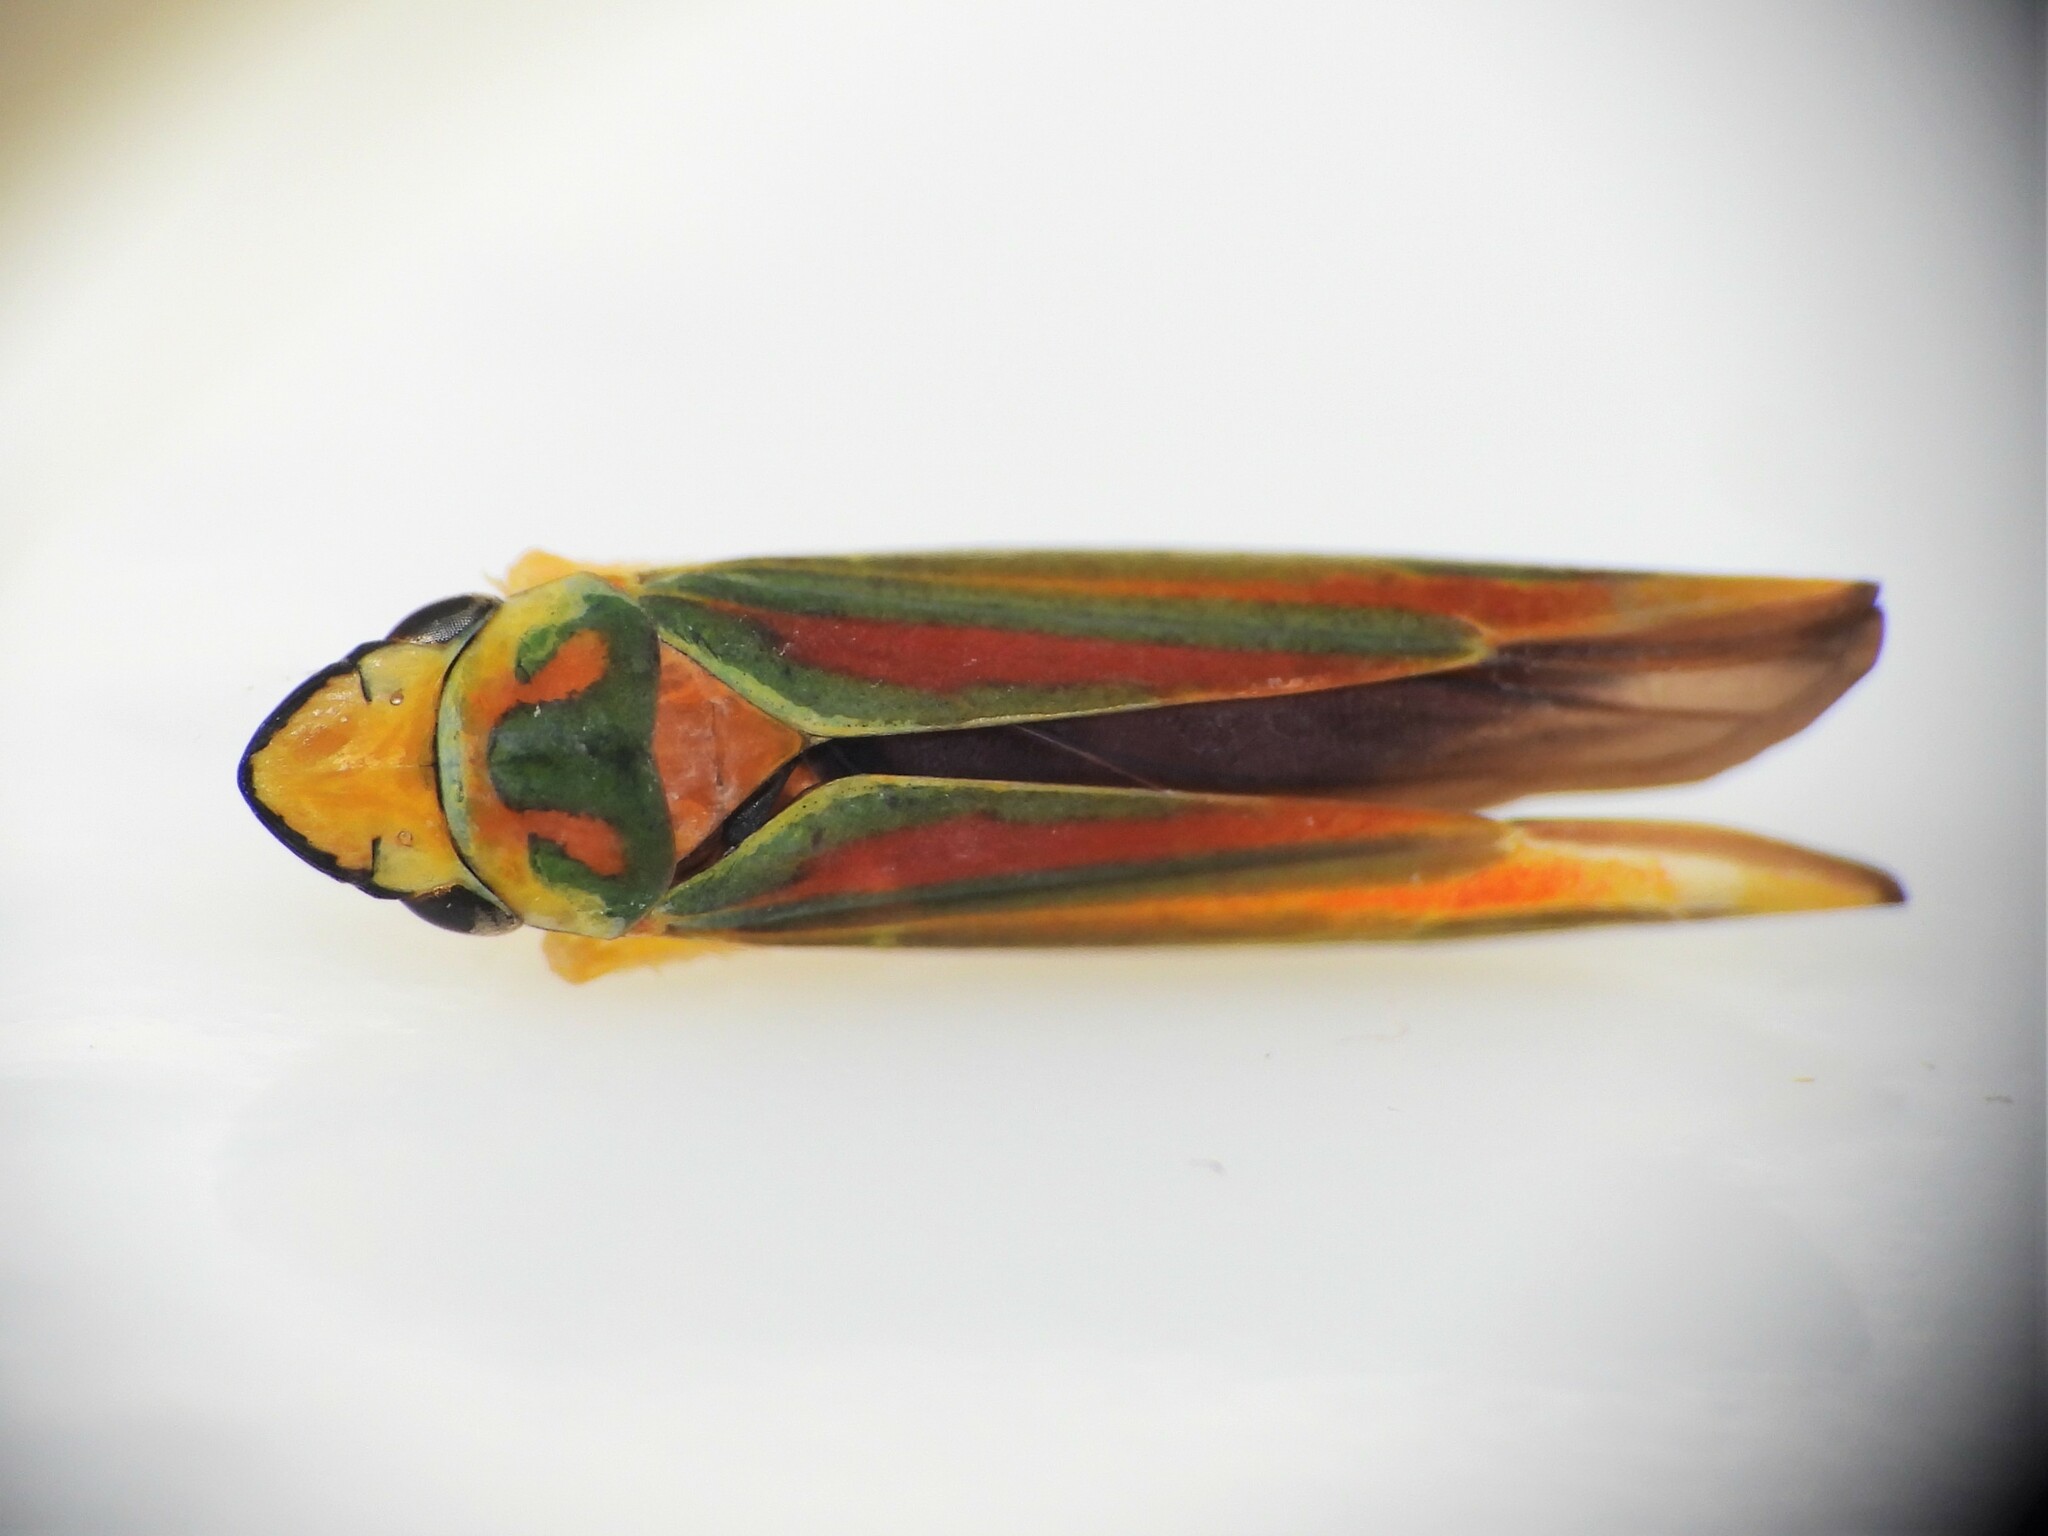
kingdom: Animalia
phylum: Arthropoda
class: Insecta
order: Hemiptera
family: Cicadellidae
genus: Graphocephala
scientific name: Graphocephala fennahi
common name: Rhododendron leafhopper
